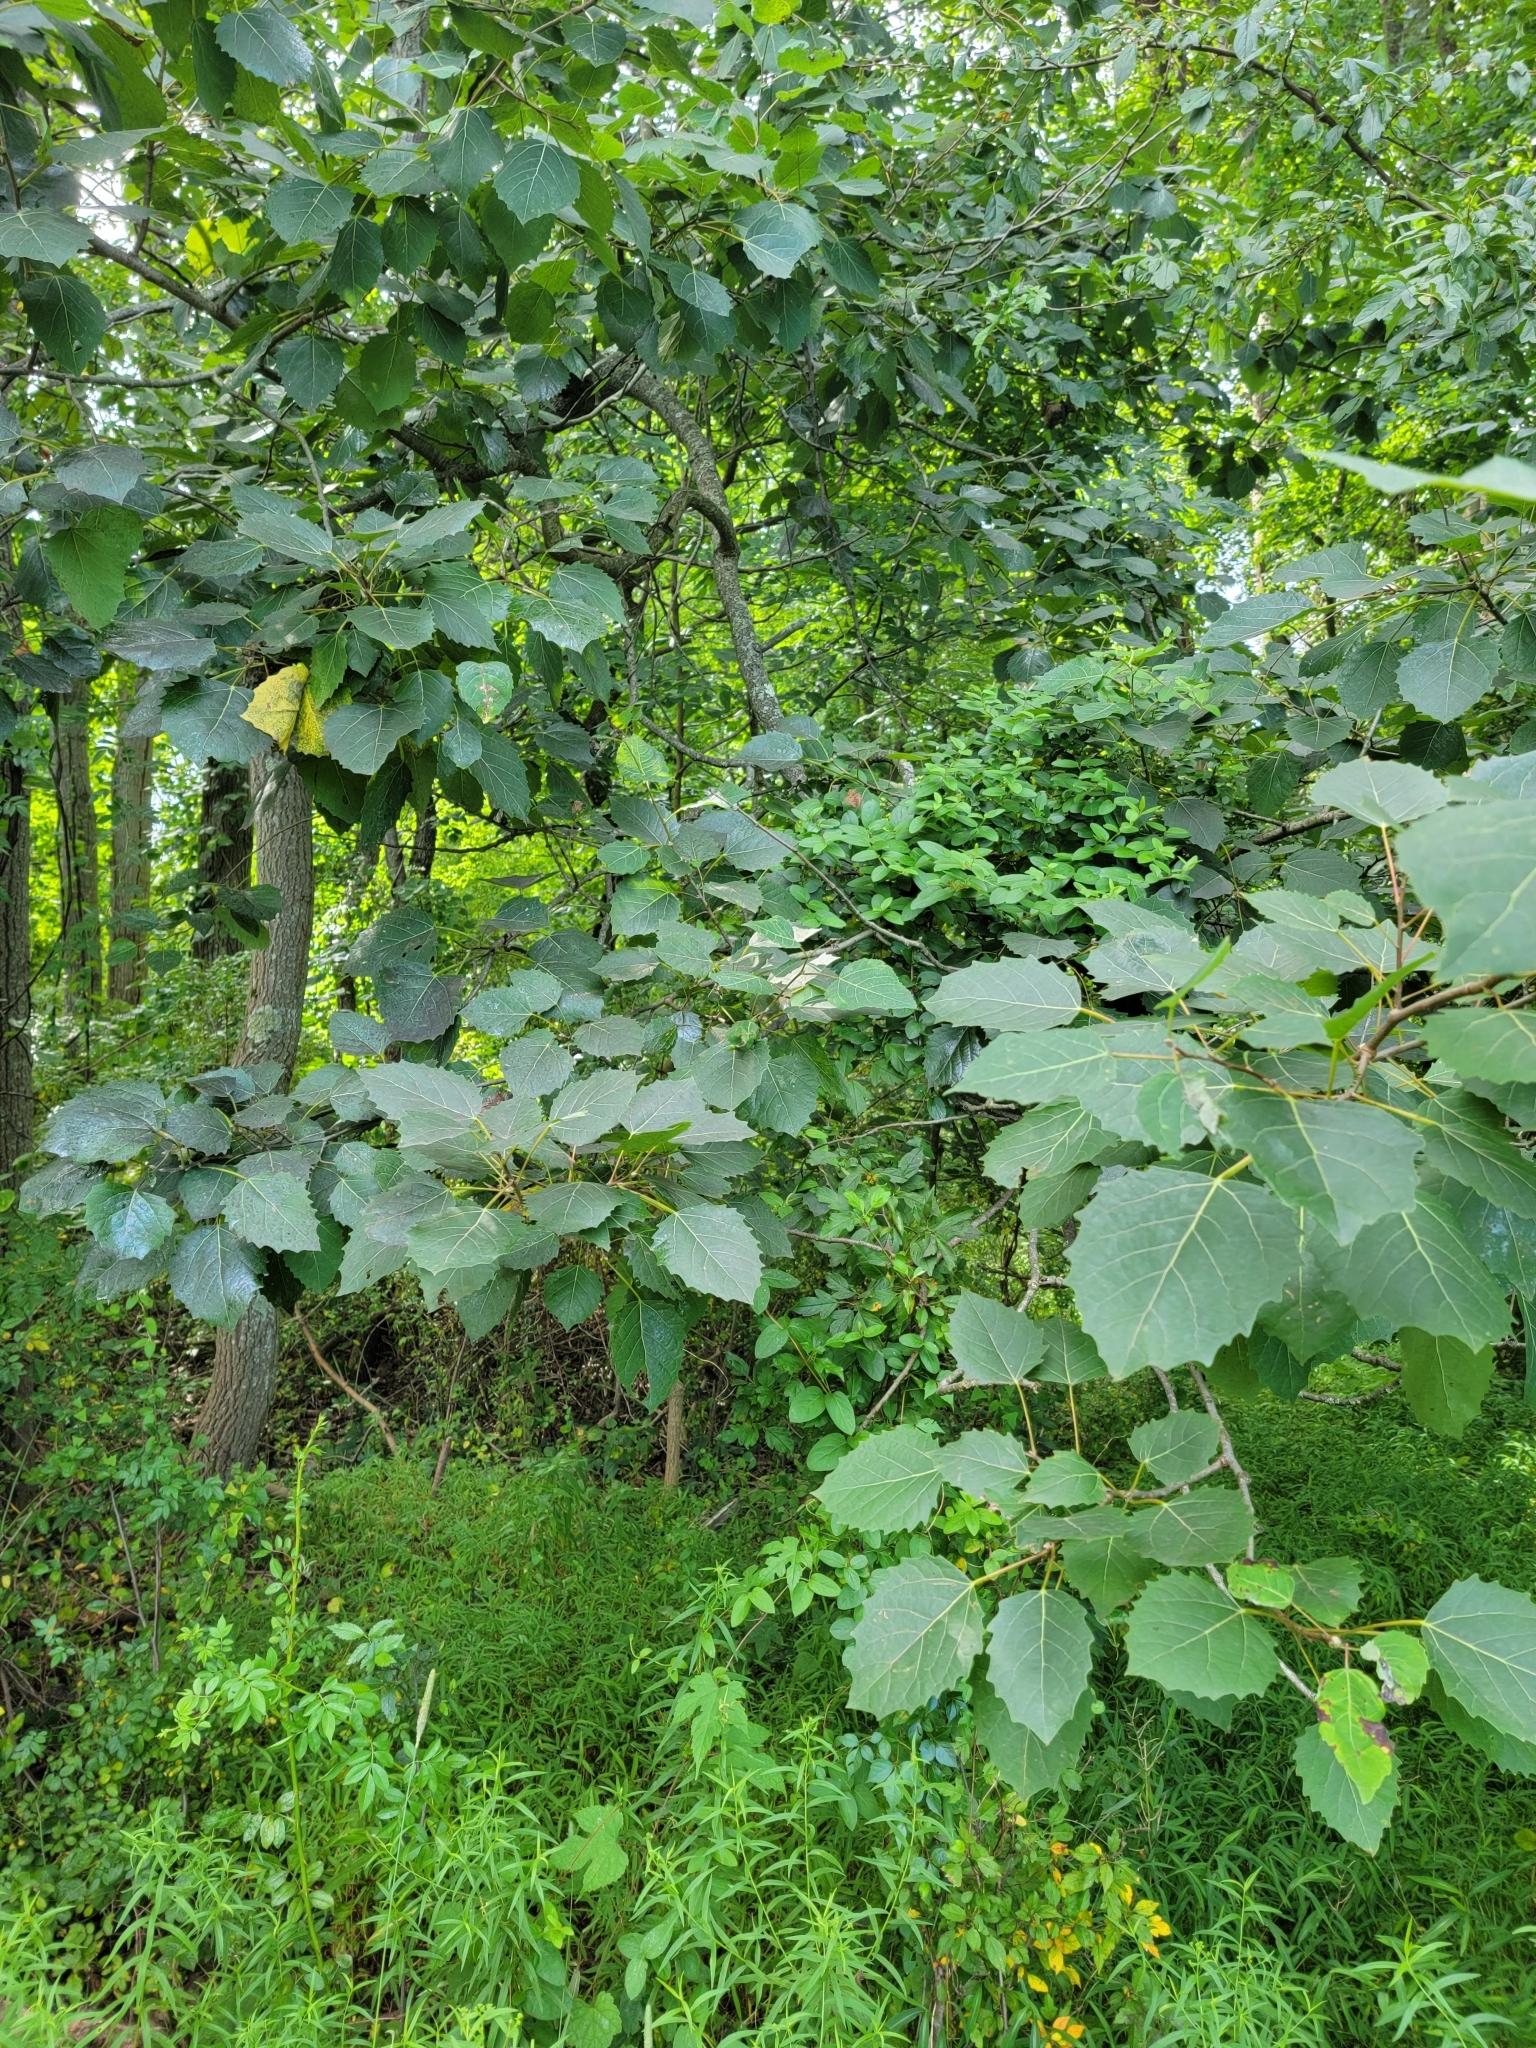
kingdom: Plantae
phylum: Tracheophyta
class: Magnoliopsida
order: Malpighiales
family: Salicaceae
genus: Populus
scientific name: Populus grandidentata
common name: Bigtooth aspen
